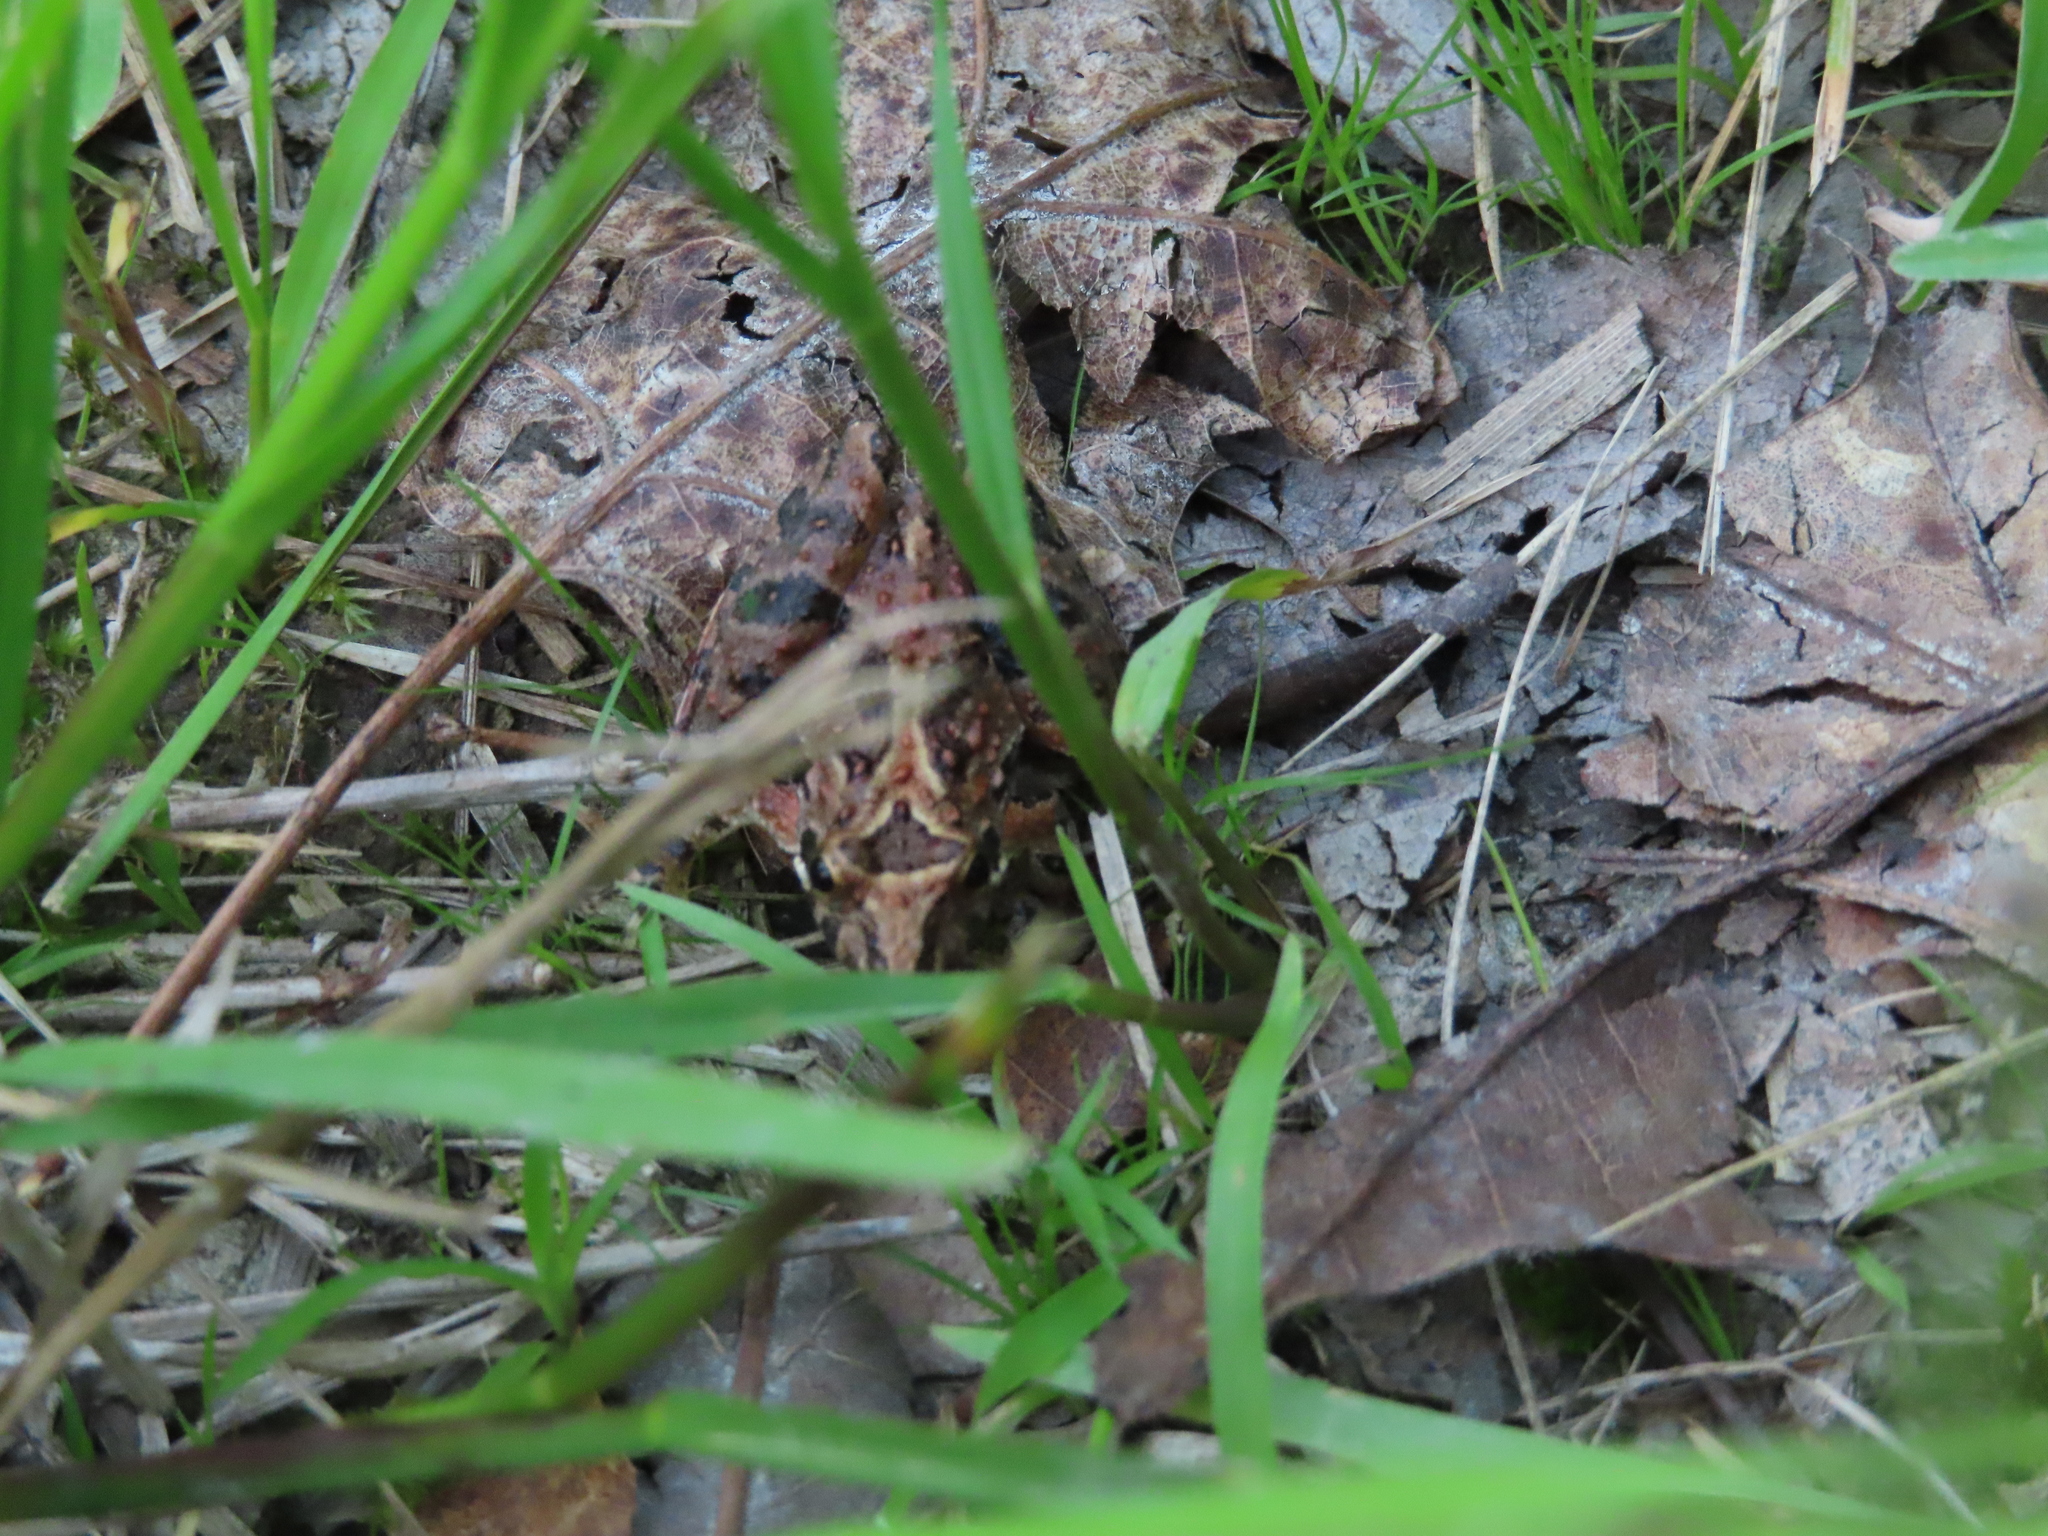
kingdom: Animalia
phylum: Chordata
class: Amphibia
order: Anura
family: Hylidae
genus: Acris
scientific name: Acris
